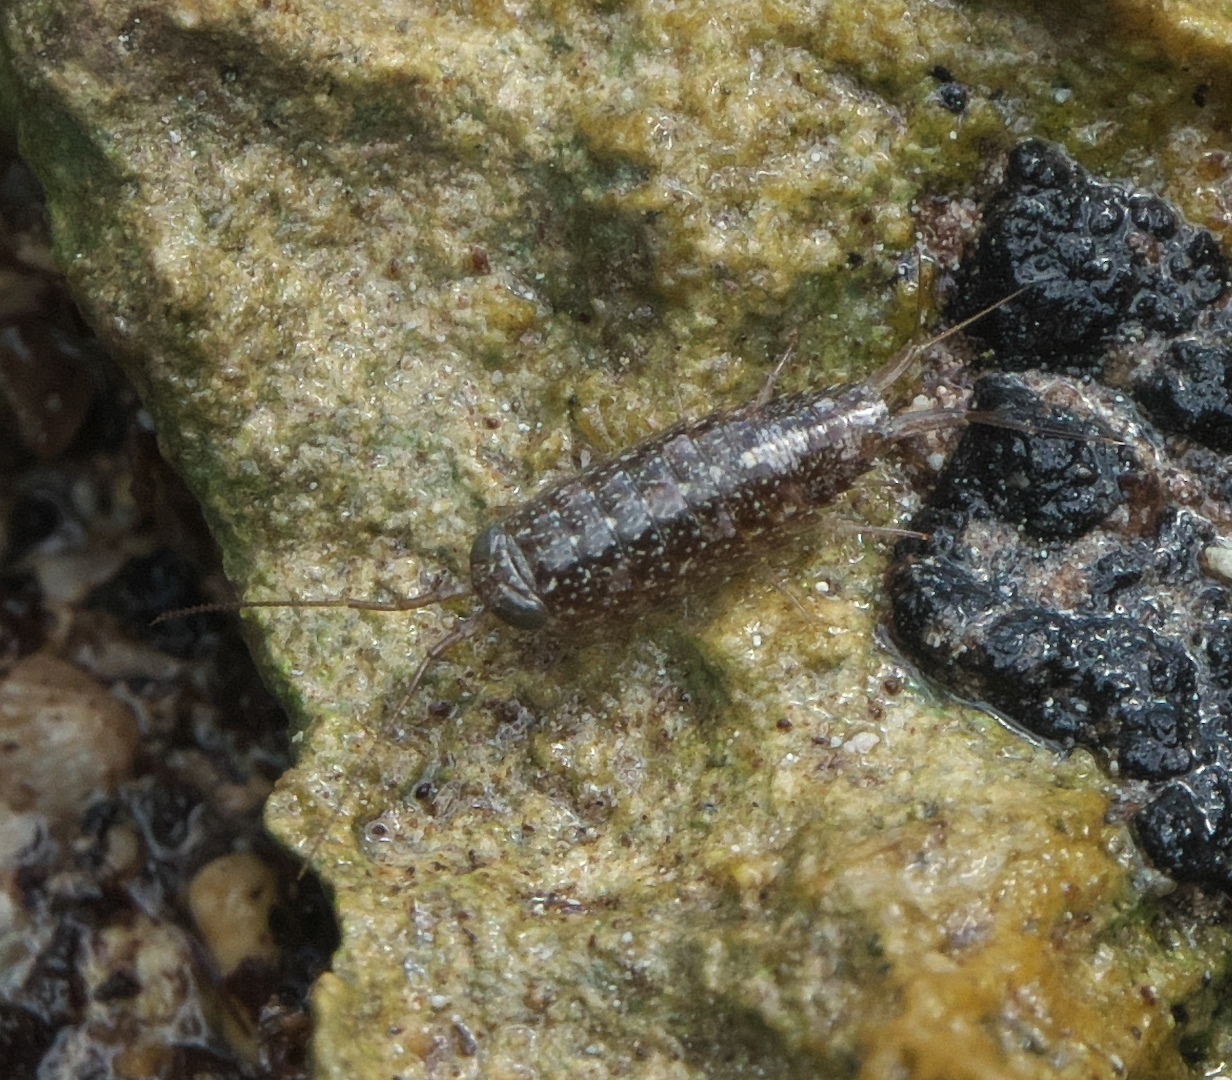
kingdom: Animalia
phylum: Arthropoda
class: Malacostraca
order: Isopoda
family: Ligiidae
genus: Ligia
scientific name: Ligia exotica
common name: Wharf roach
